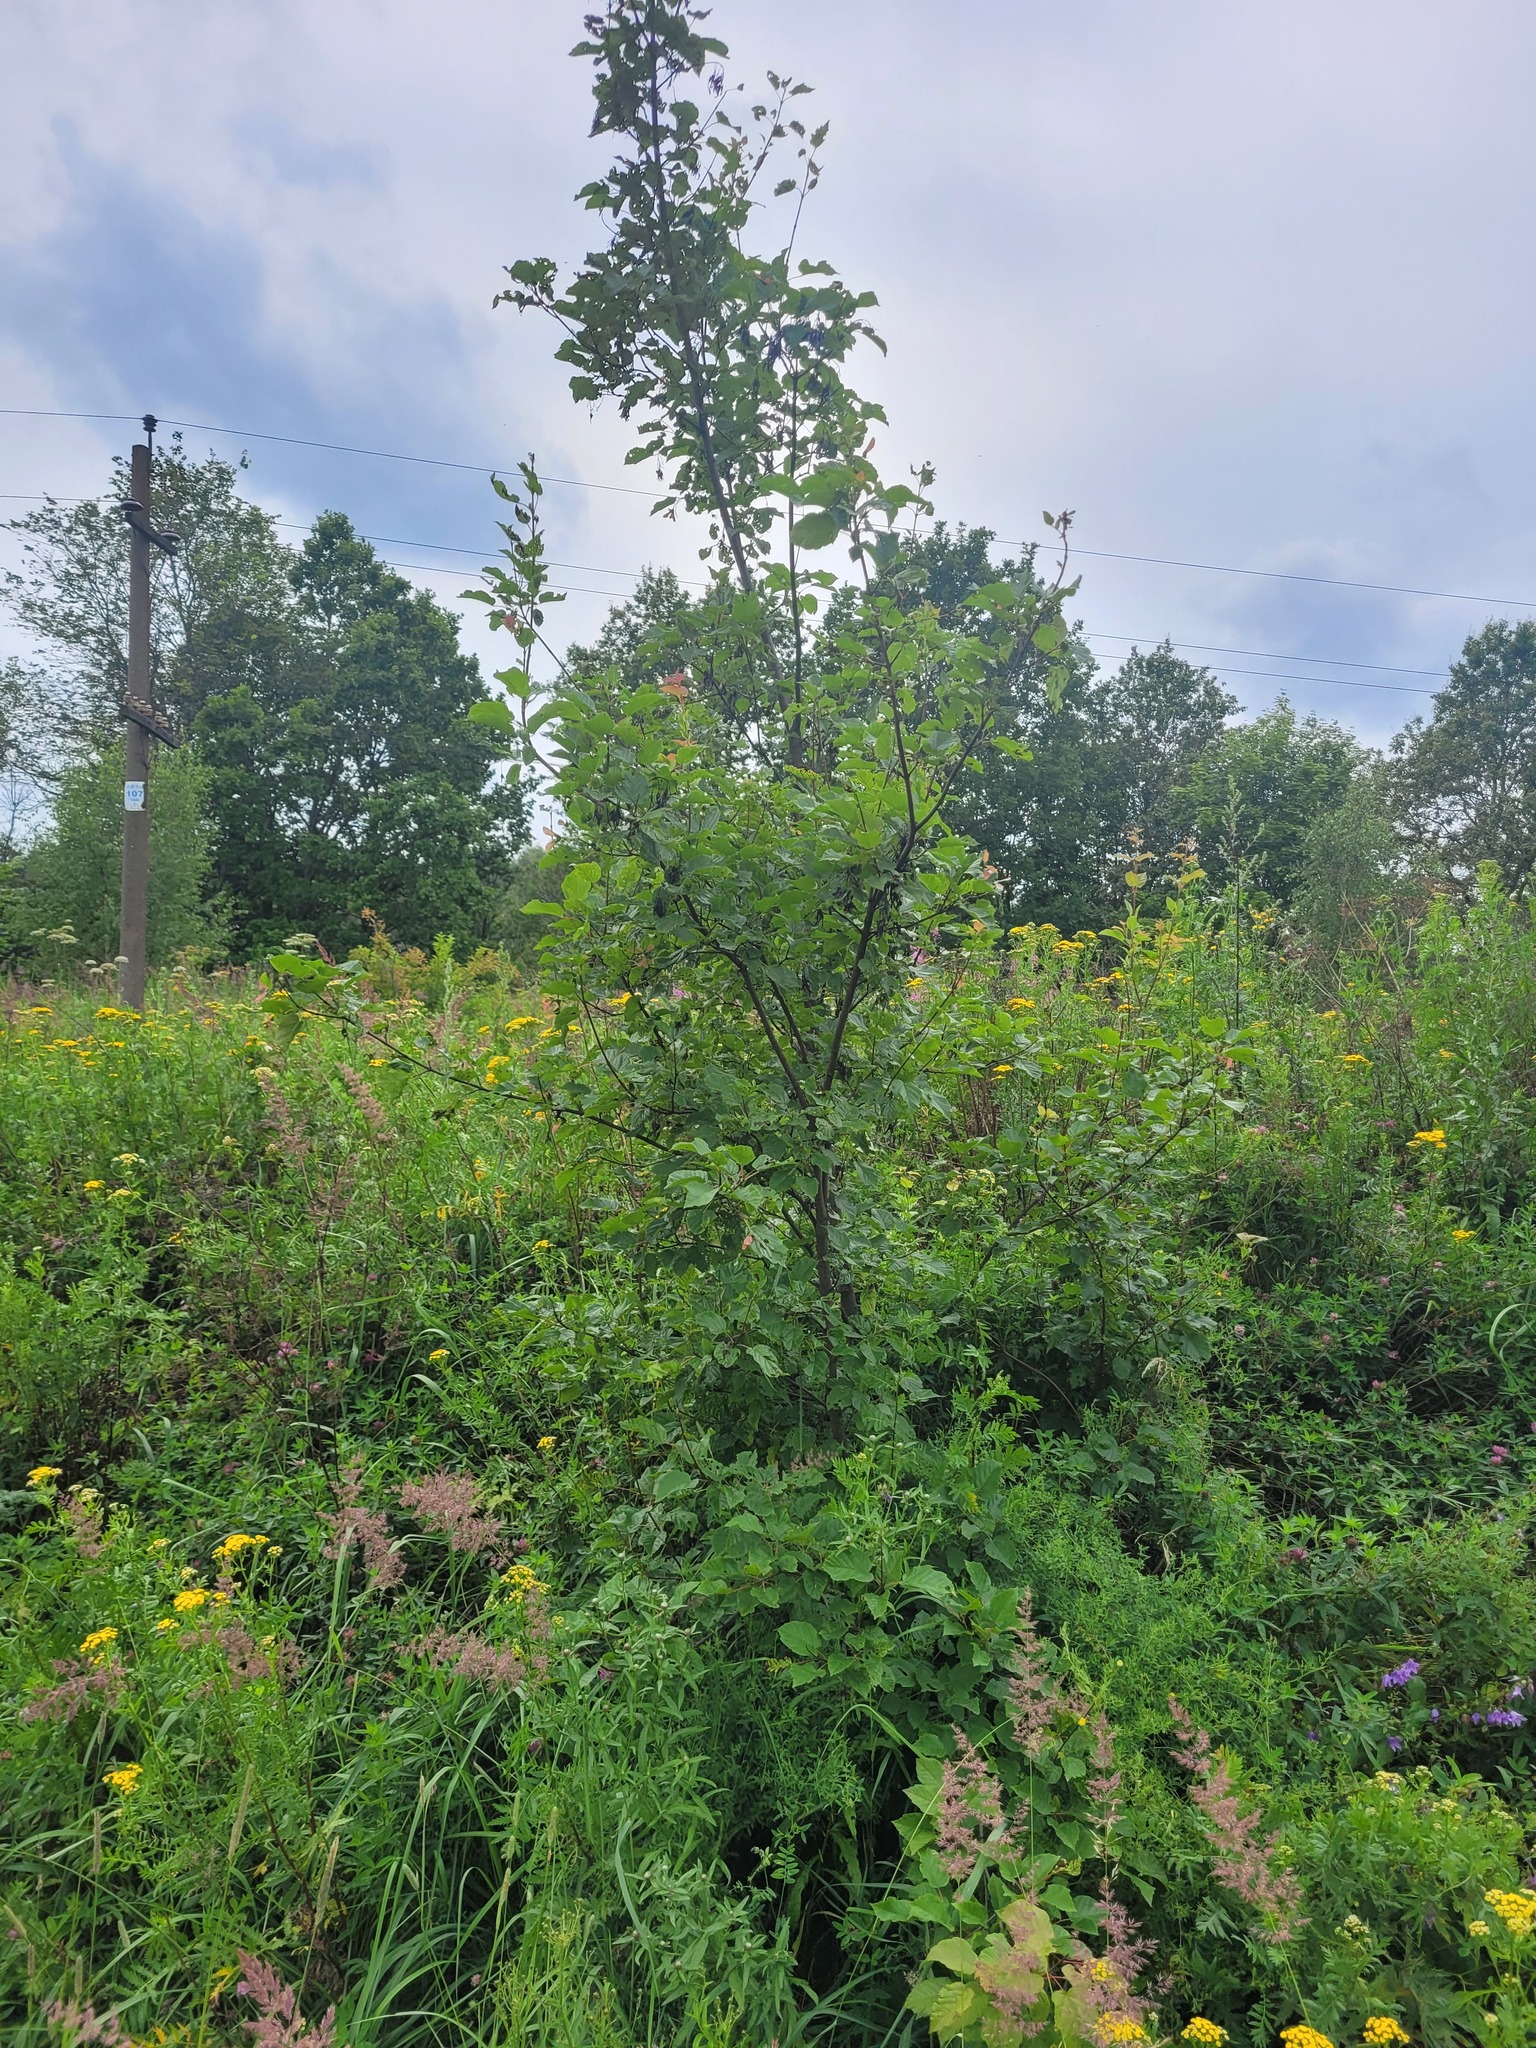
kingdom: Plantae
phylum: Tracheophyta
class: Magnoliopsida
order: Sapindales
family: Sapindaceae
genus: Acer
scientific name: Acer tataricum
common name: Tartar maple
